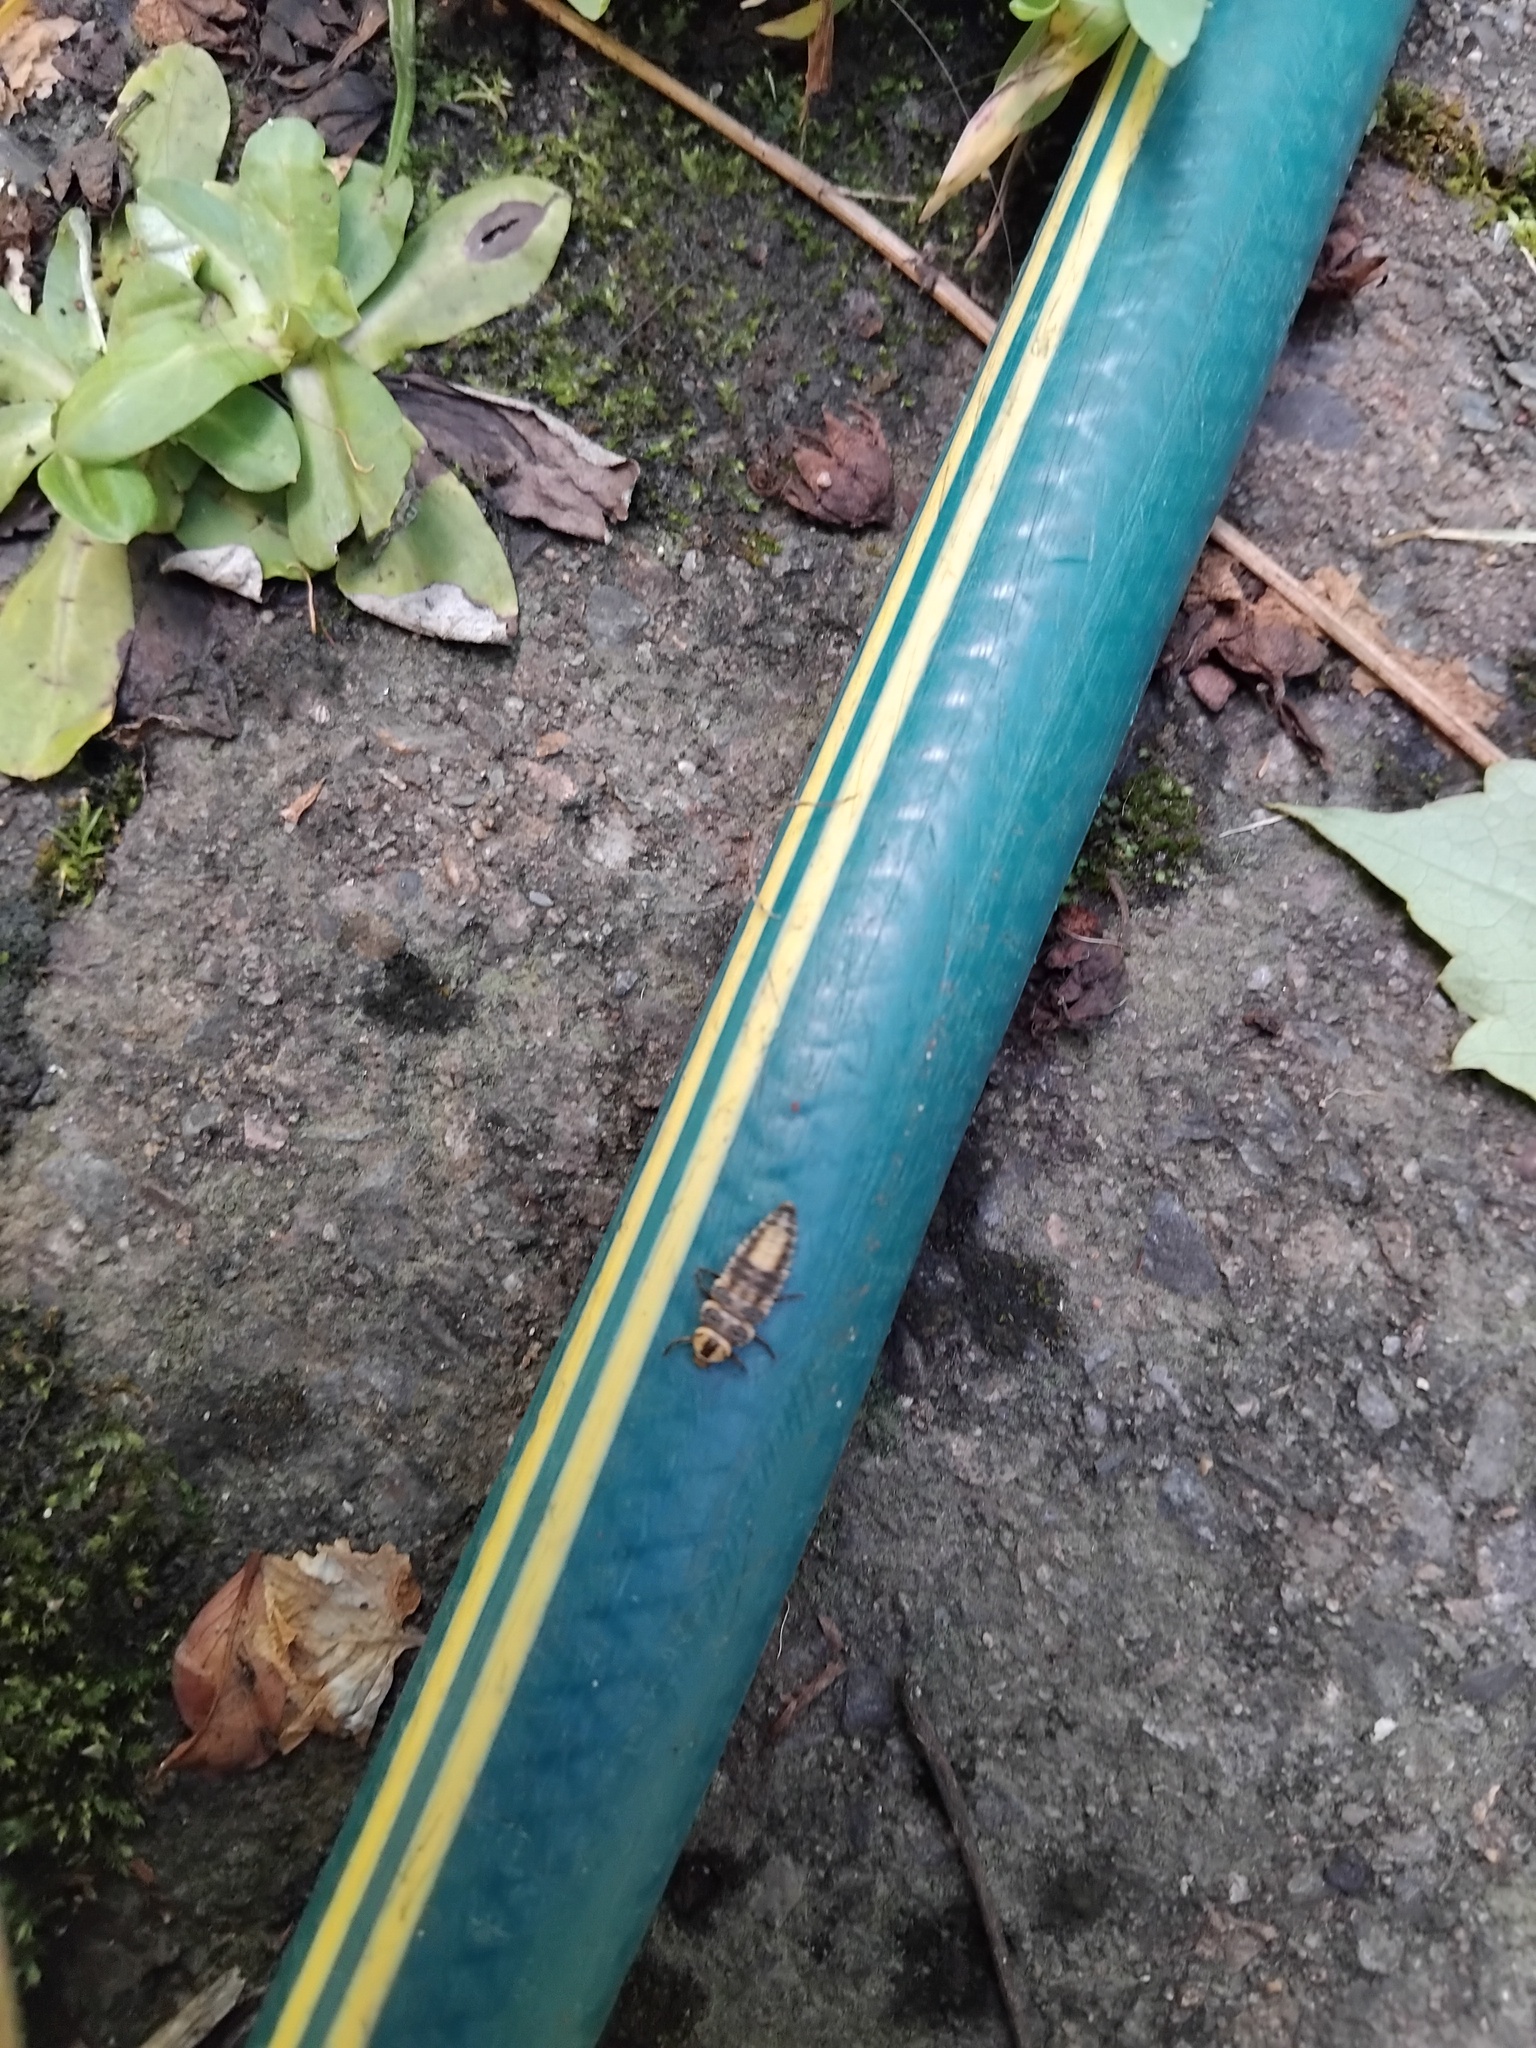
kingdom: Animalia
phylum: Arthropoda
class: Insecta
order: Coleoptera
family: Coccinellidae
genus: Harmonia
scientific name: Harmonia
